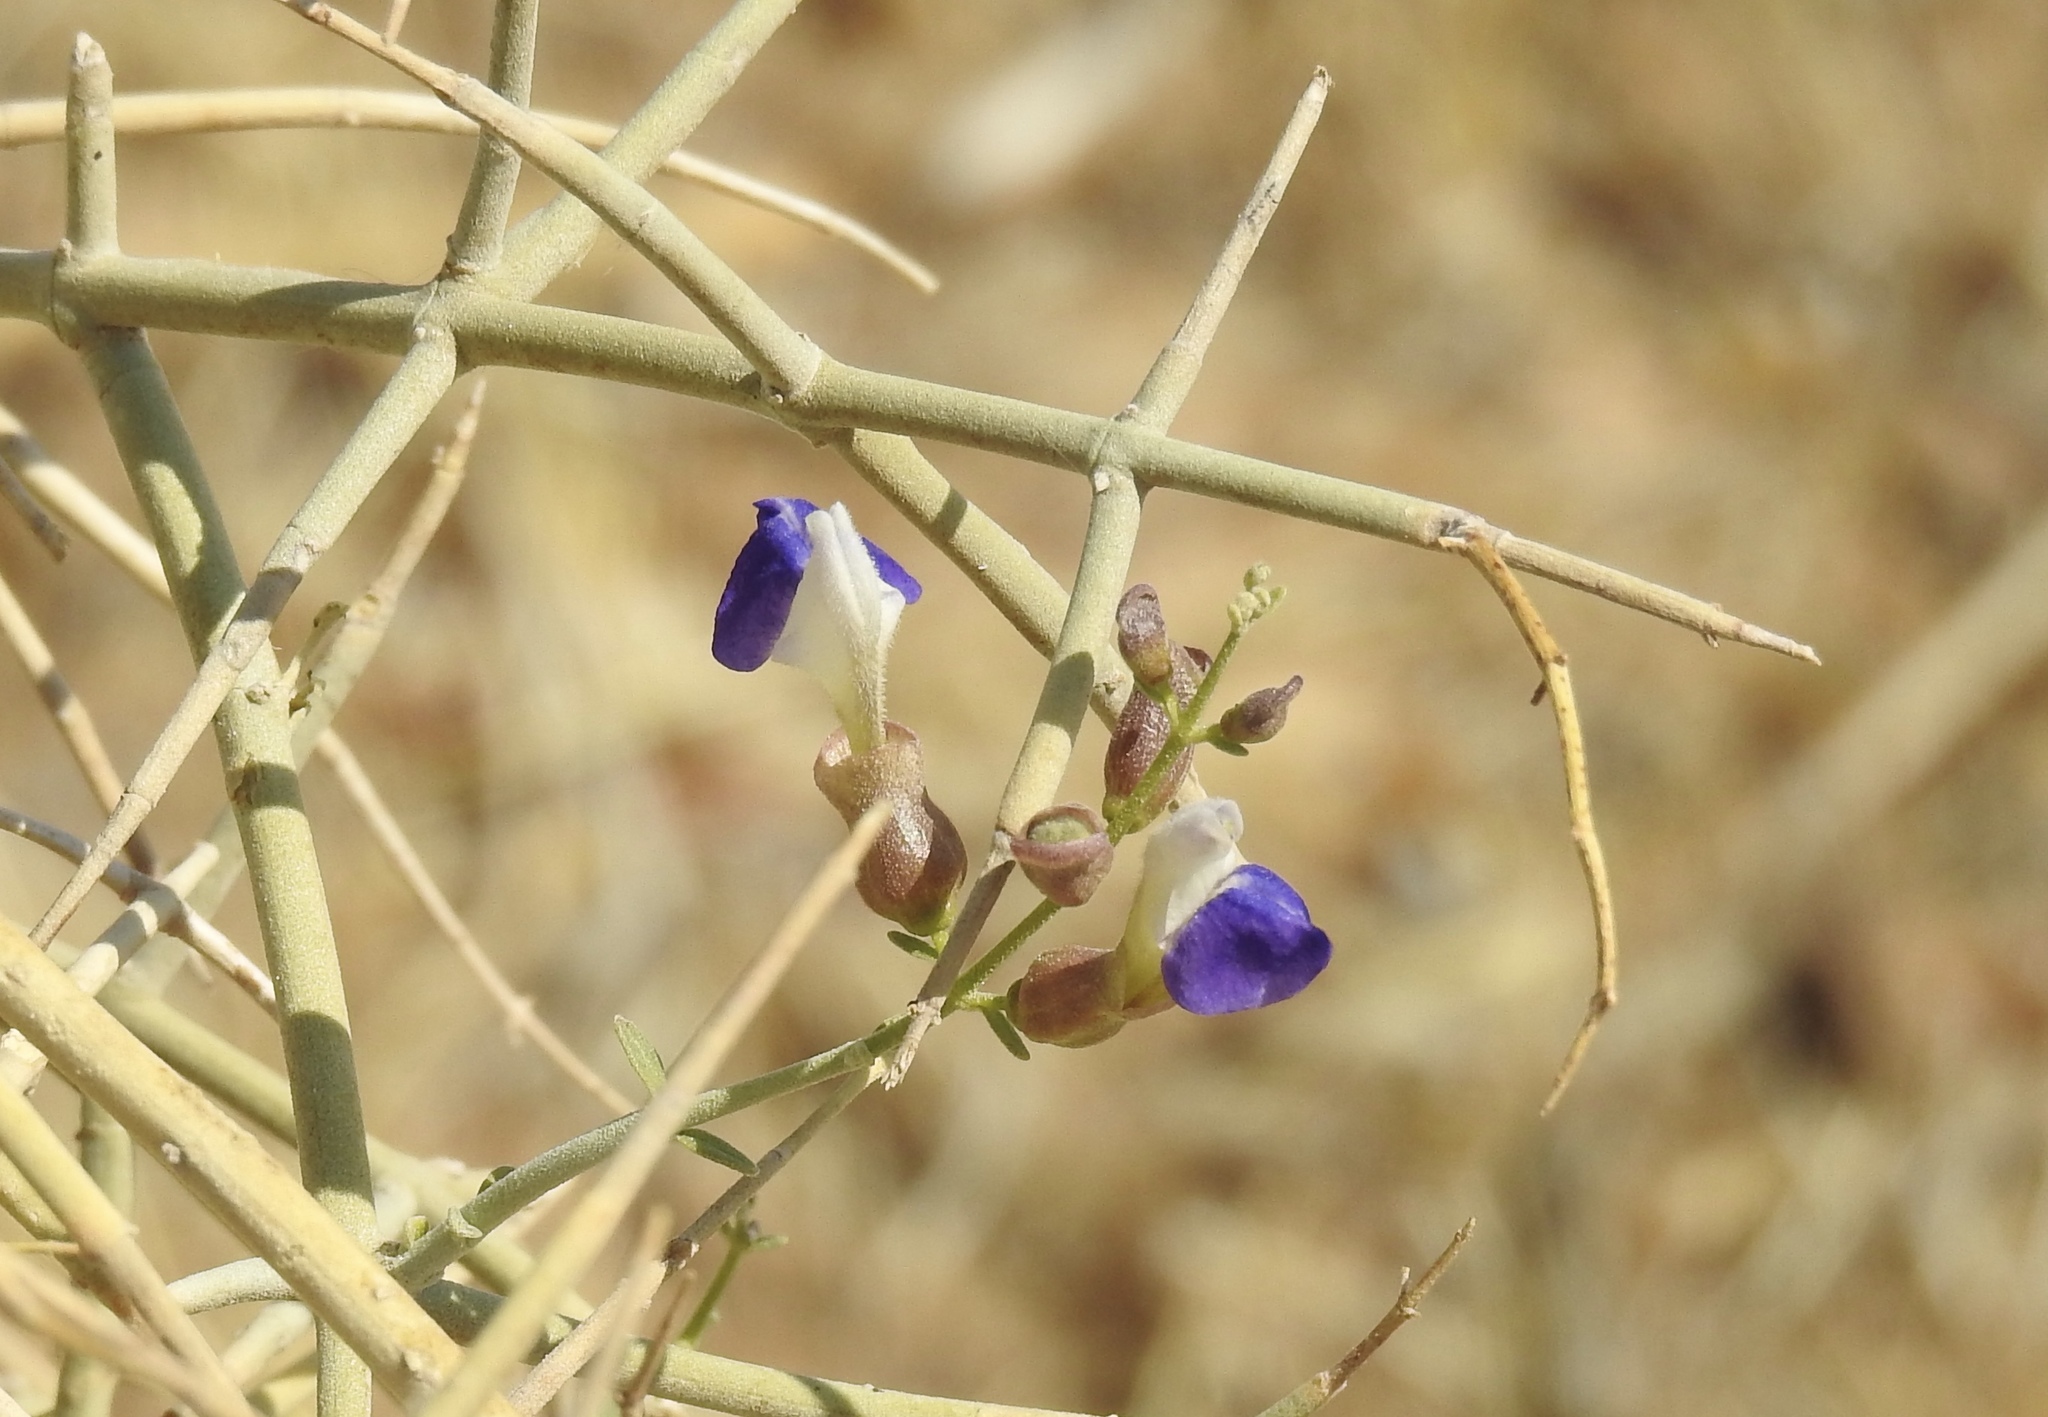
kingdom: Plantae
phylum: Tracheophyta
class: Magnoliopsida
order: Lamiales
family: Lamiaceae
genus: Scutellaria
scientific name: Scutellaria mexicana
